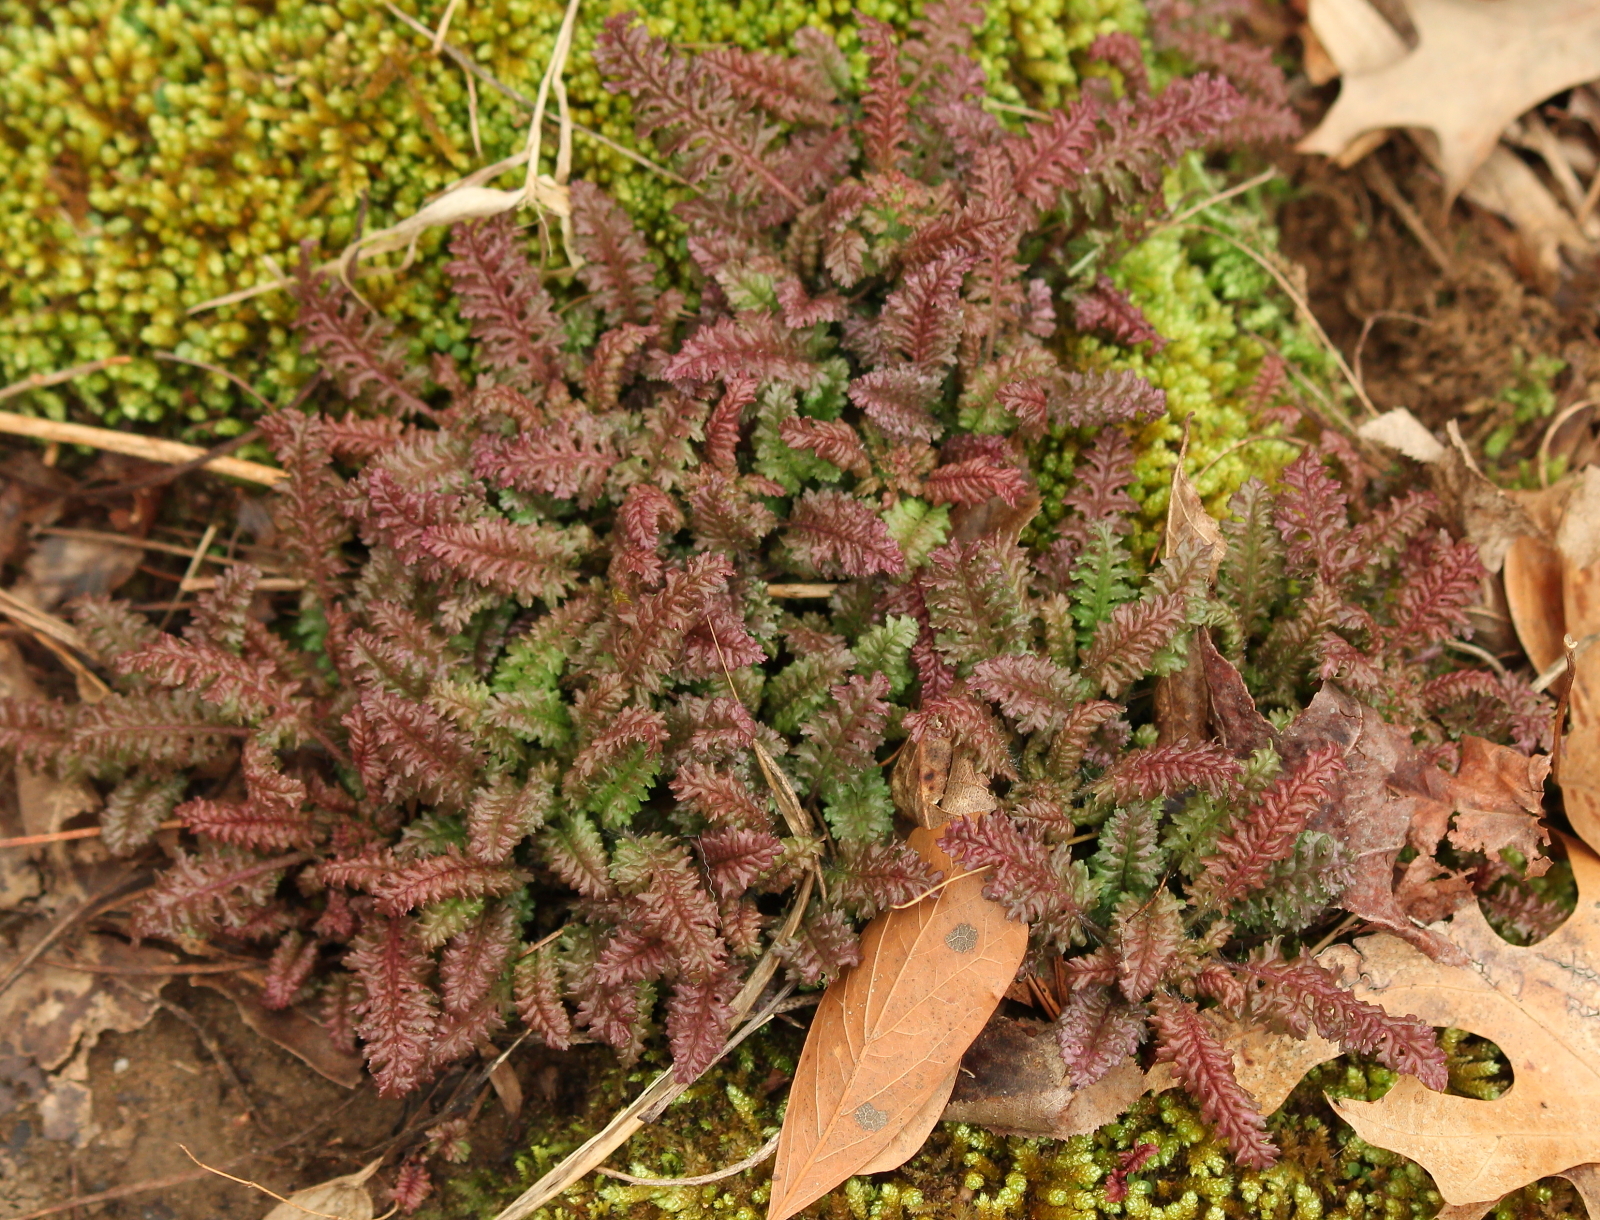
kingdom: Plantae
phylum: Tracheophyta
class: Magnoliopsida
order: Lamiales
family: Orobanchaceae
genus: Pedicularis
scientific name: Pedicularis canadensis
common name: Early lousewort
